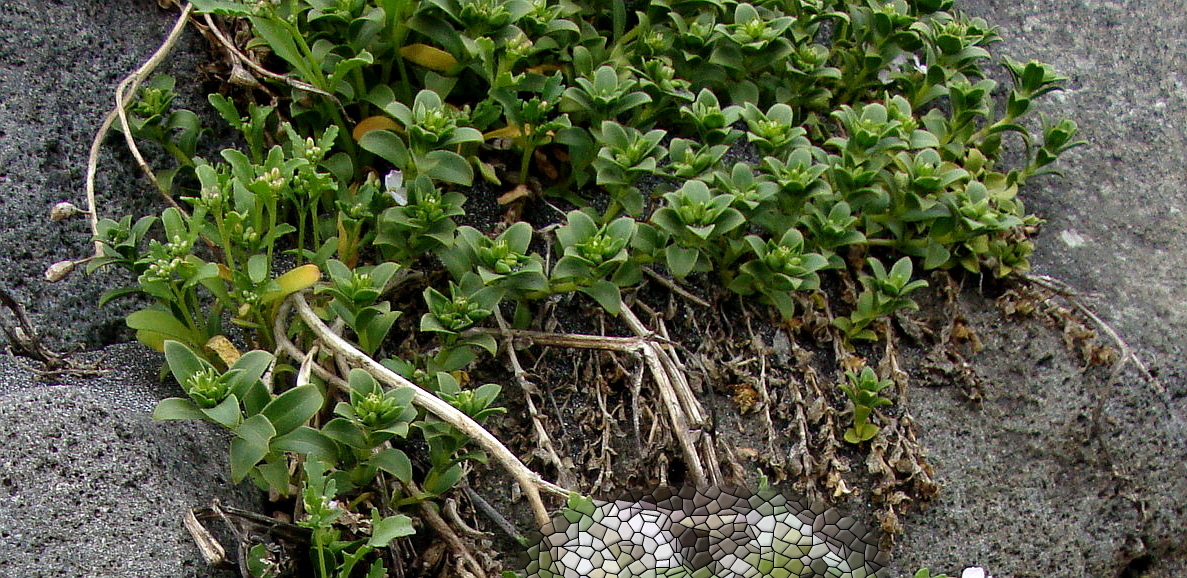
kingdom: Plantae
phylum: Tracheophyta
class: Magnoliopsida
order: Caryophyllales
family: Caryophyllaceae
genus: Honckenya
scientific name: Honckenya peploides
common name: Sea sandwort
